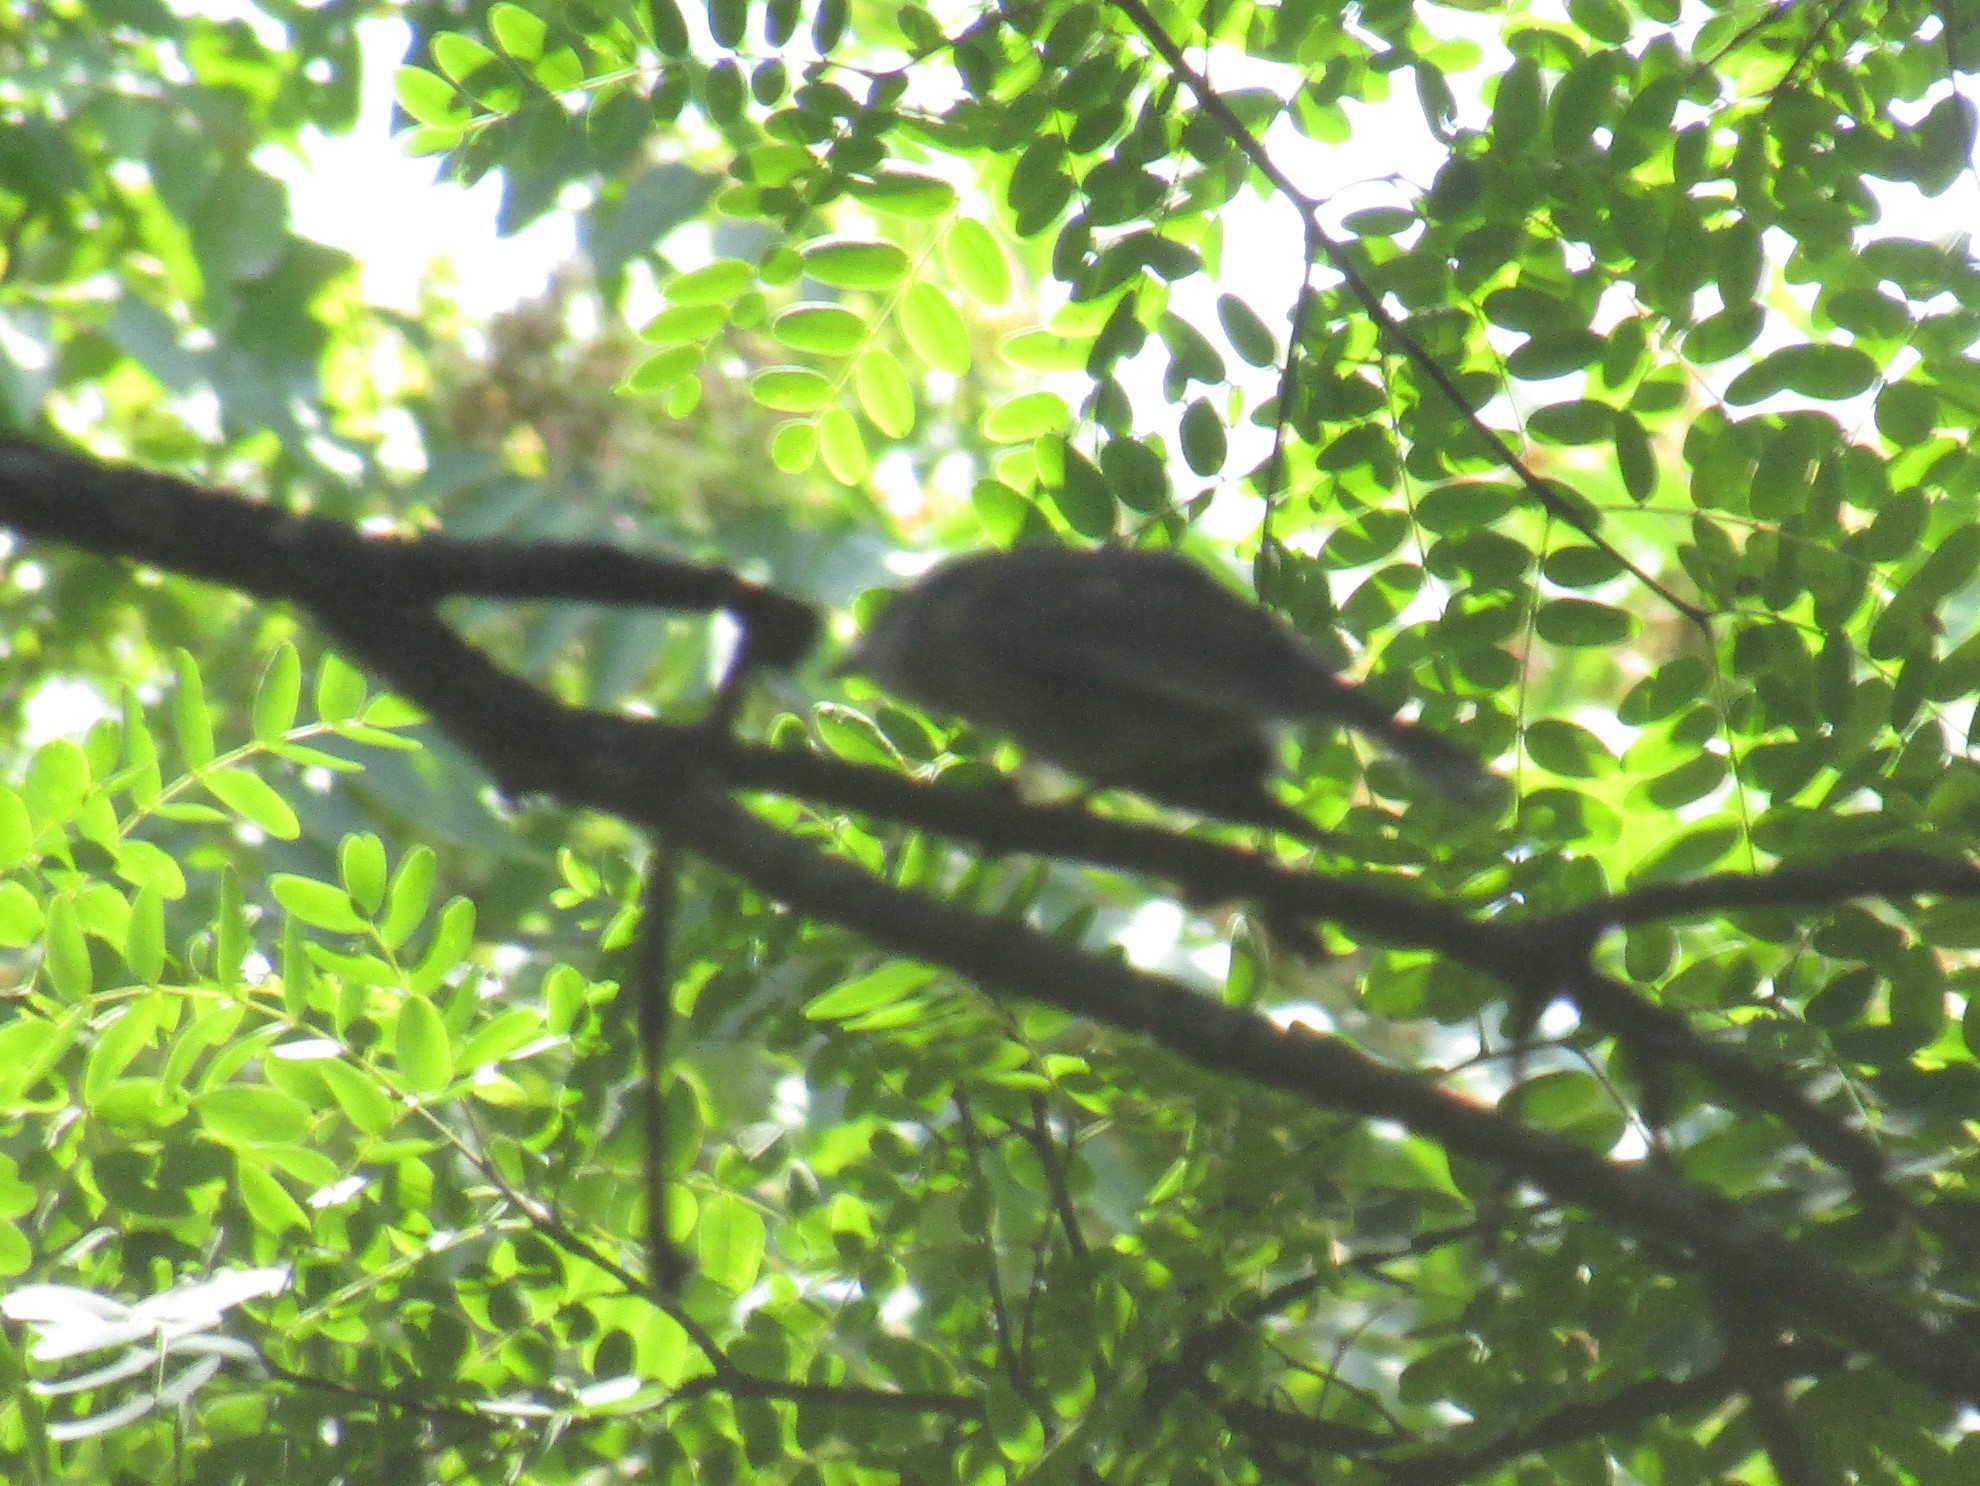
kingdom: Animalia
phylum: Chordata
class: Aves
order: Passeriformes
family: Thraupidae
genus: Thraupis
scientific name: Thraupis sayaca
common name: Sayaca tanager
